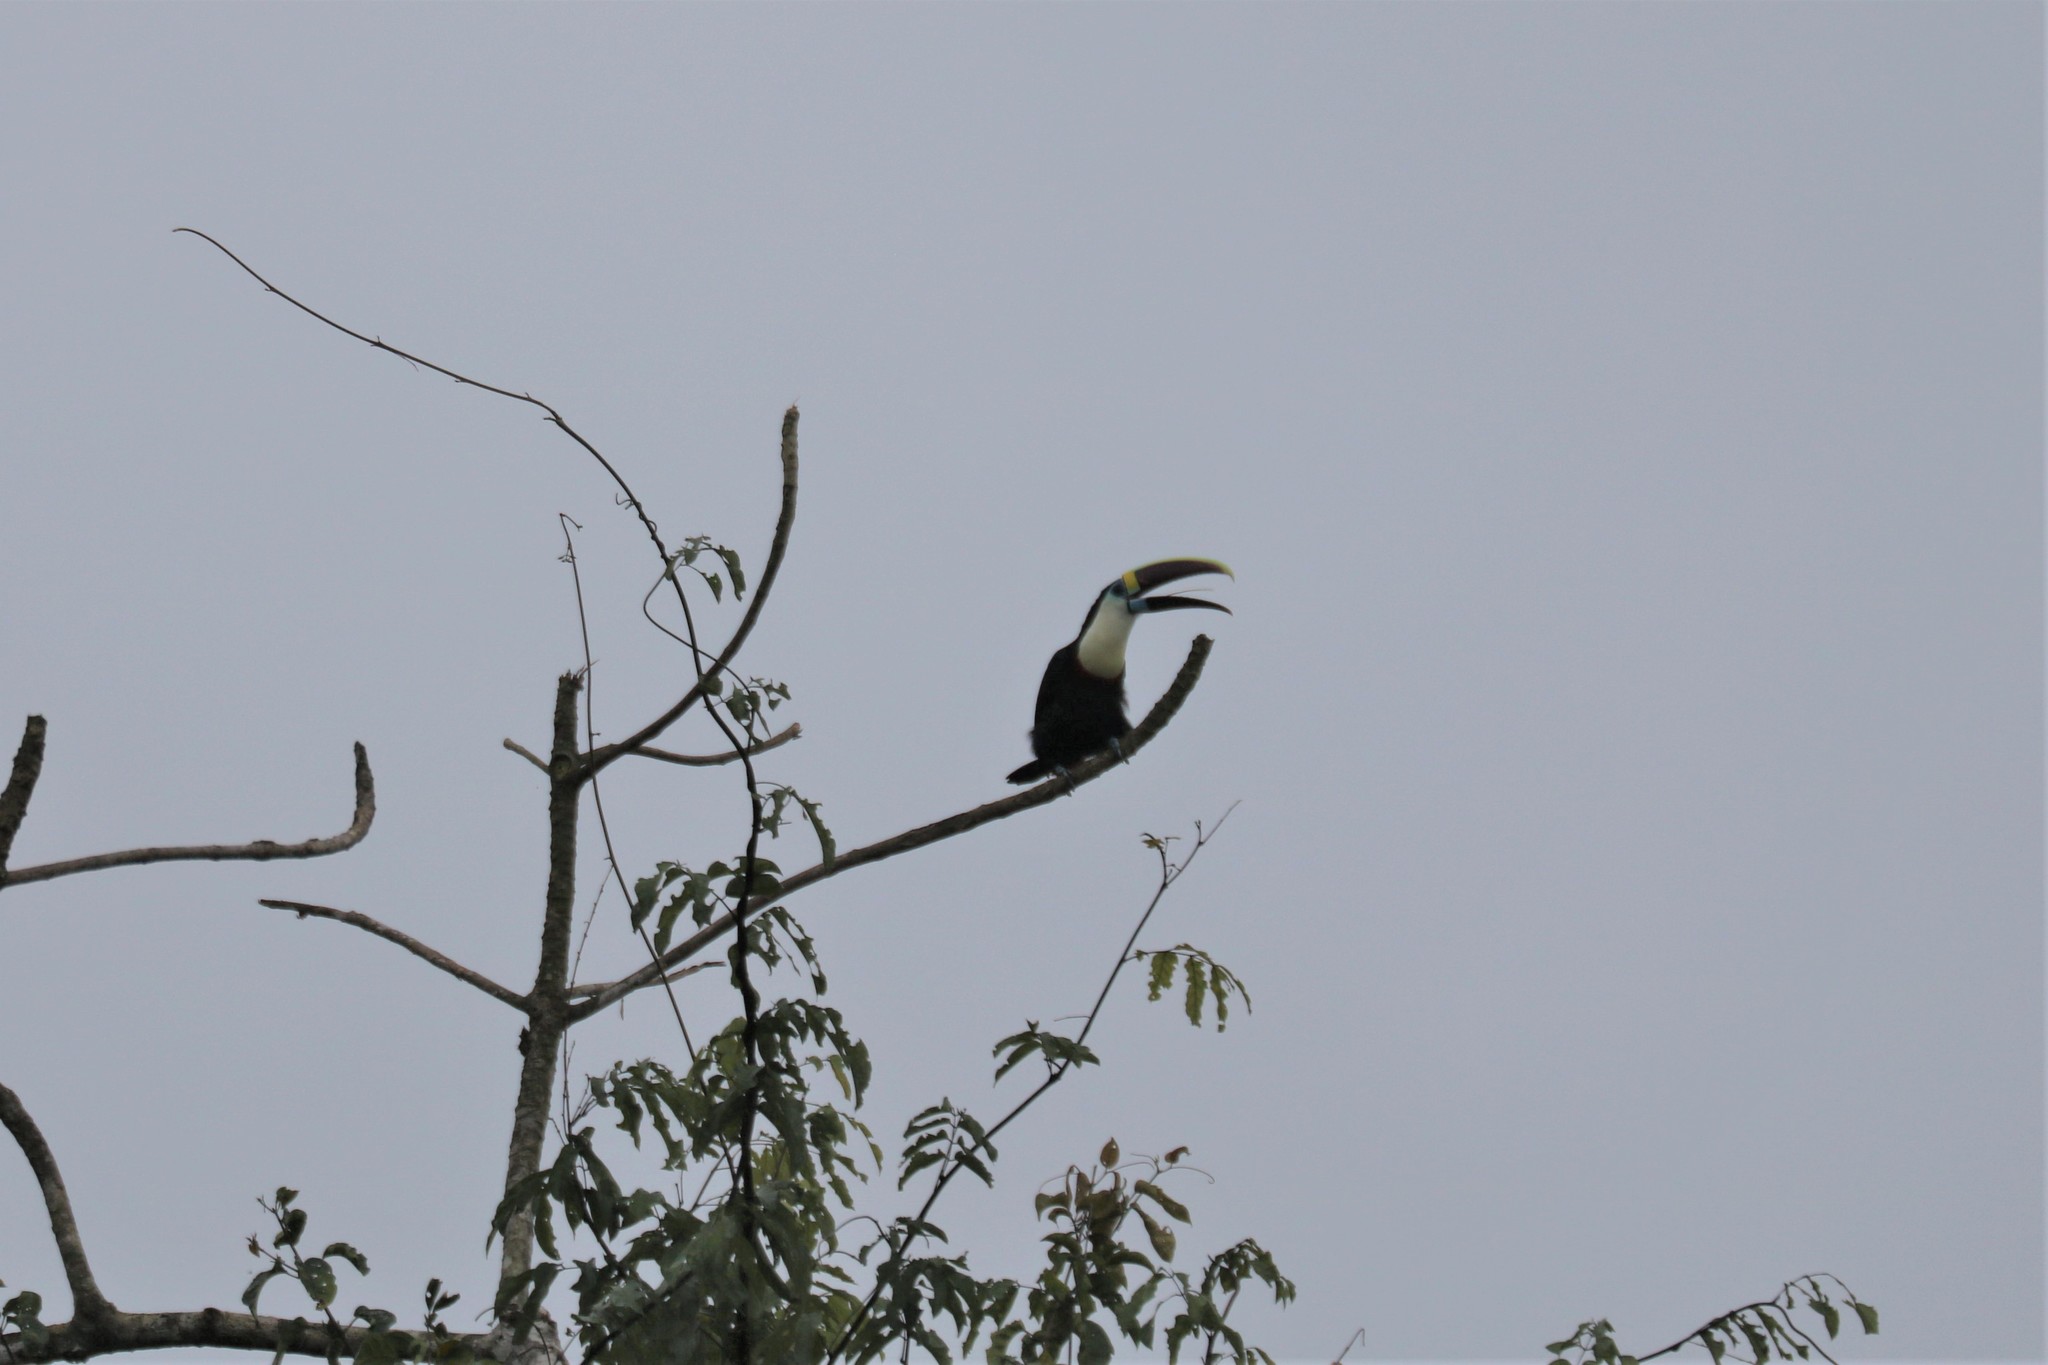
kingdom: Animalia
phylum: Chordata
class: Aves
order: Piciformes
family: Ramphastidae
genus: Ramphastos
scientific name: Ramphastos tucanus
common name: White-throated toucan
